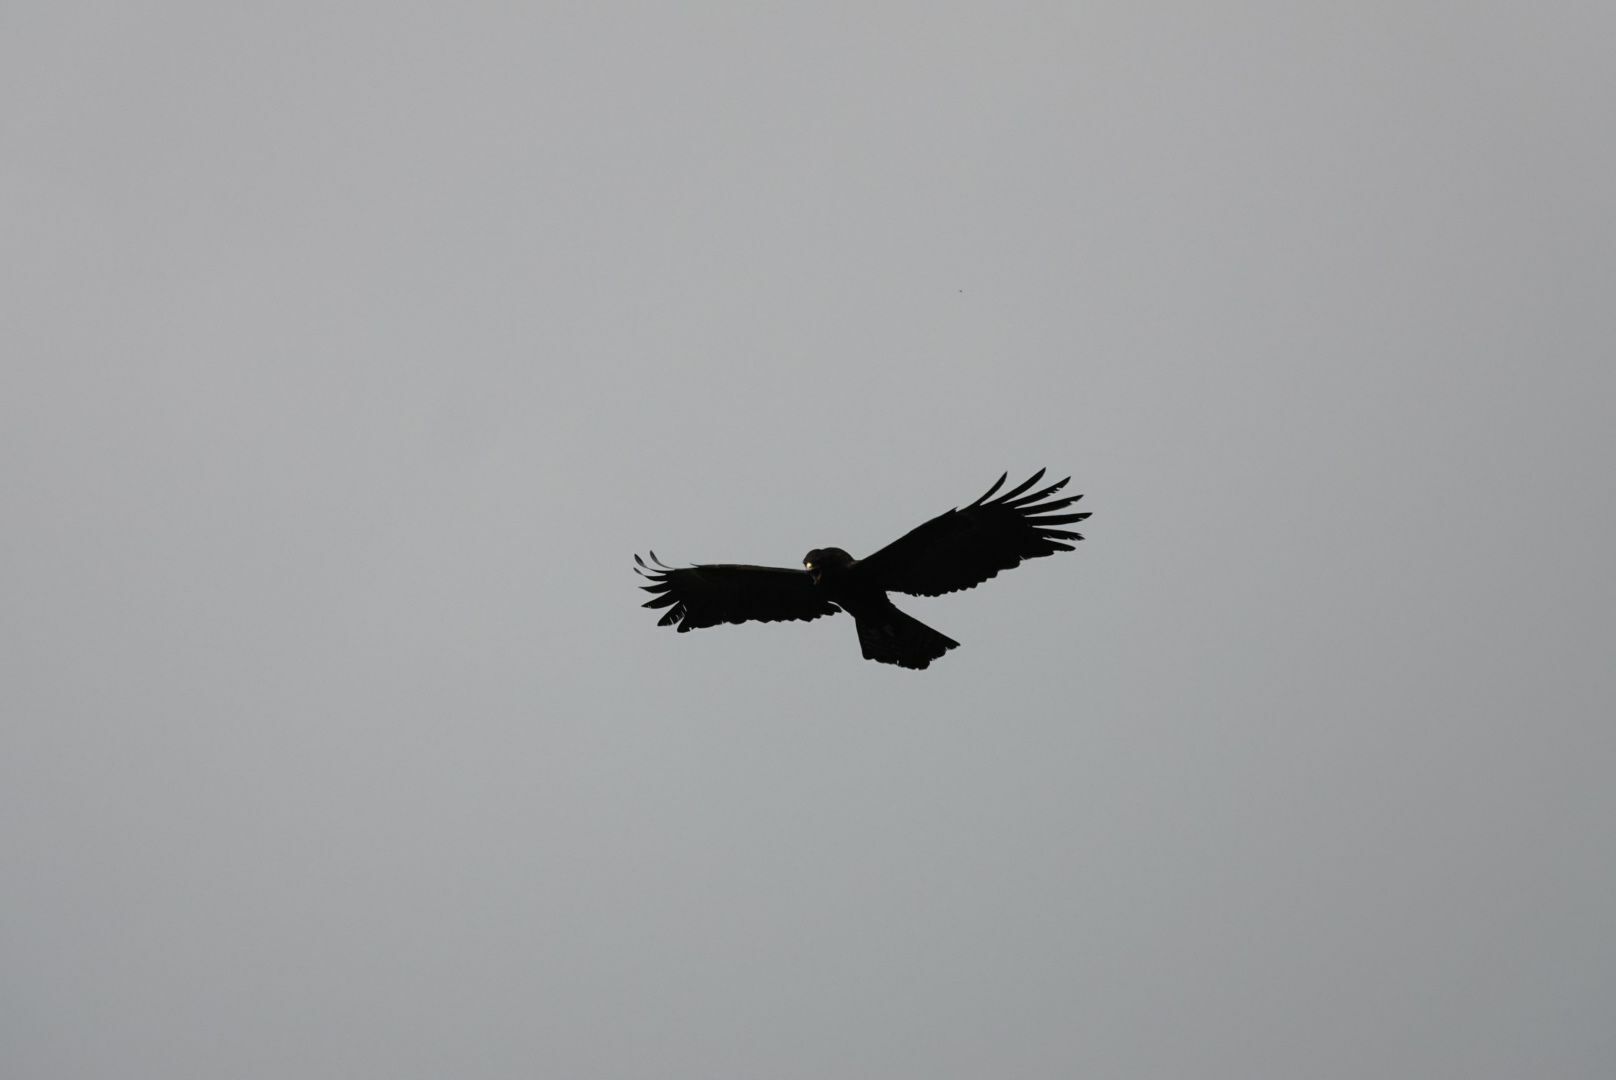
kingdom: Animalia
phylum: Chordata
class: Aves
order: Accipitriformes
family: Accipitridae
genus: Ictinaetus
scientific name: Ictinaetus malayensis
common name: Black eagle
